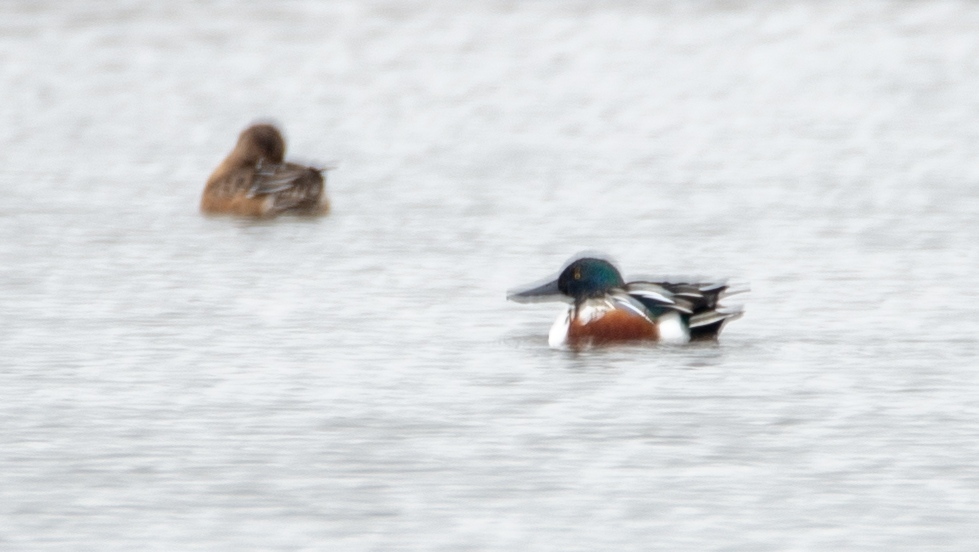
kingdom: Animalia
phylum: Chordata
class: Aves
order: Anseriformes
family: Anatidae
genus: Spatula
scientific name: Spatula clypeata
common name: Northern shoveler
